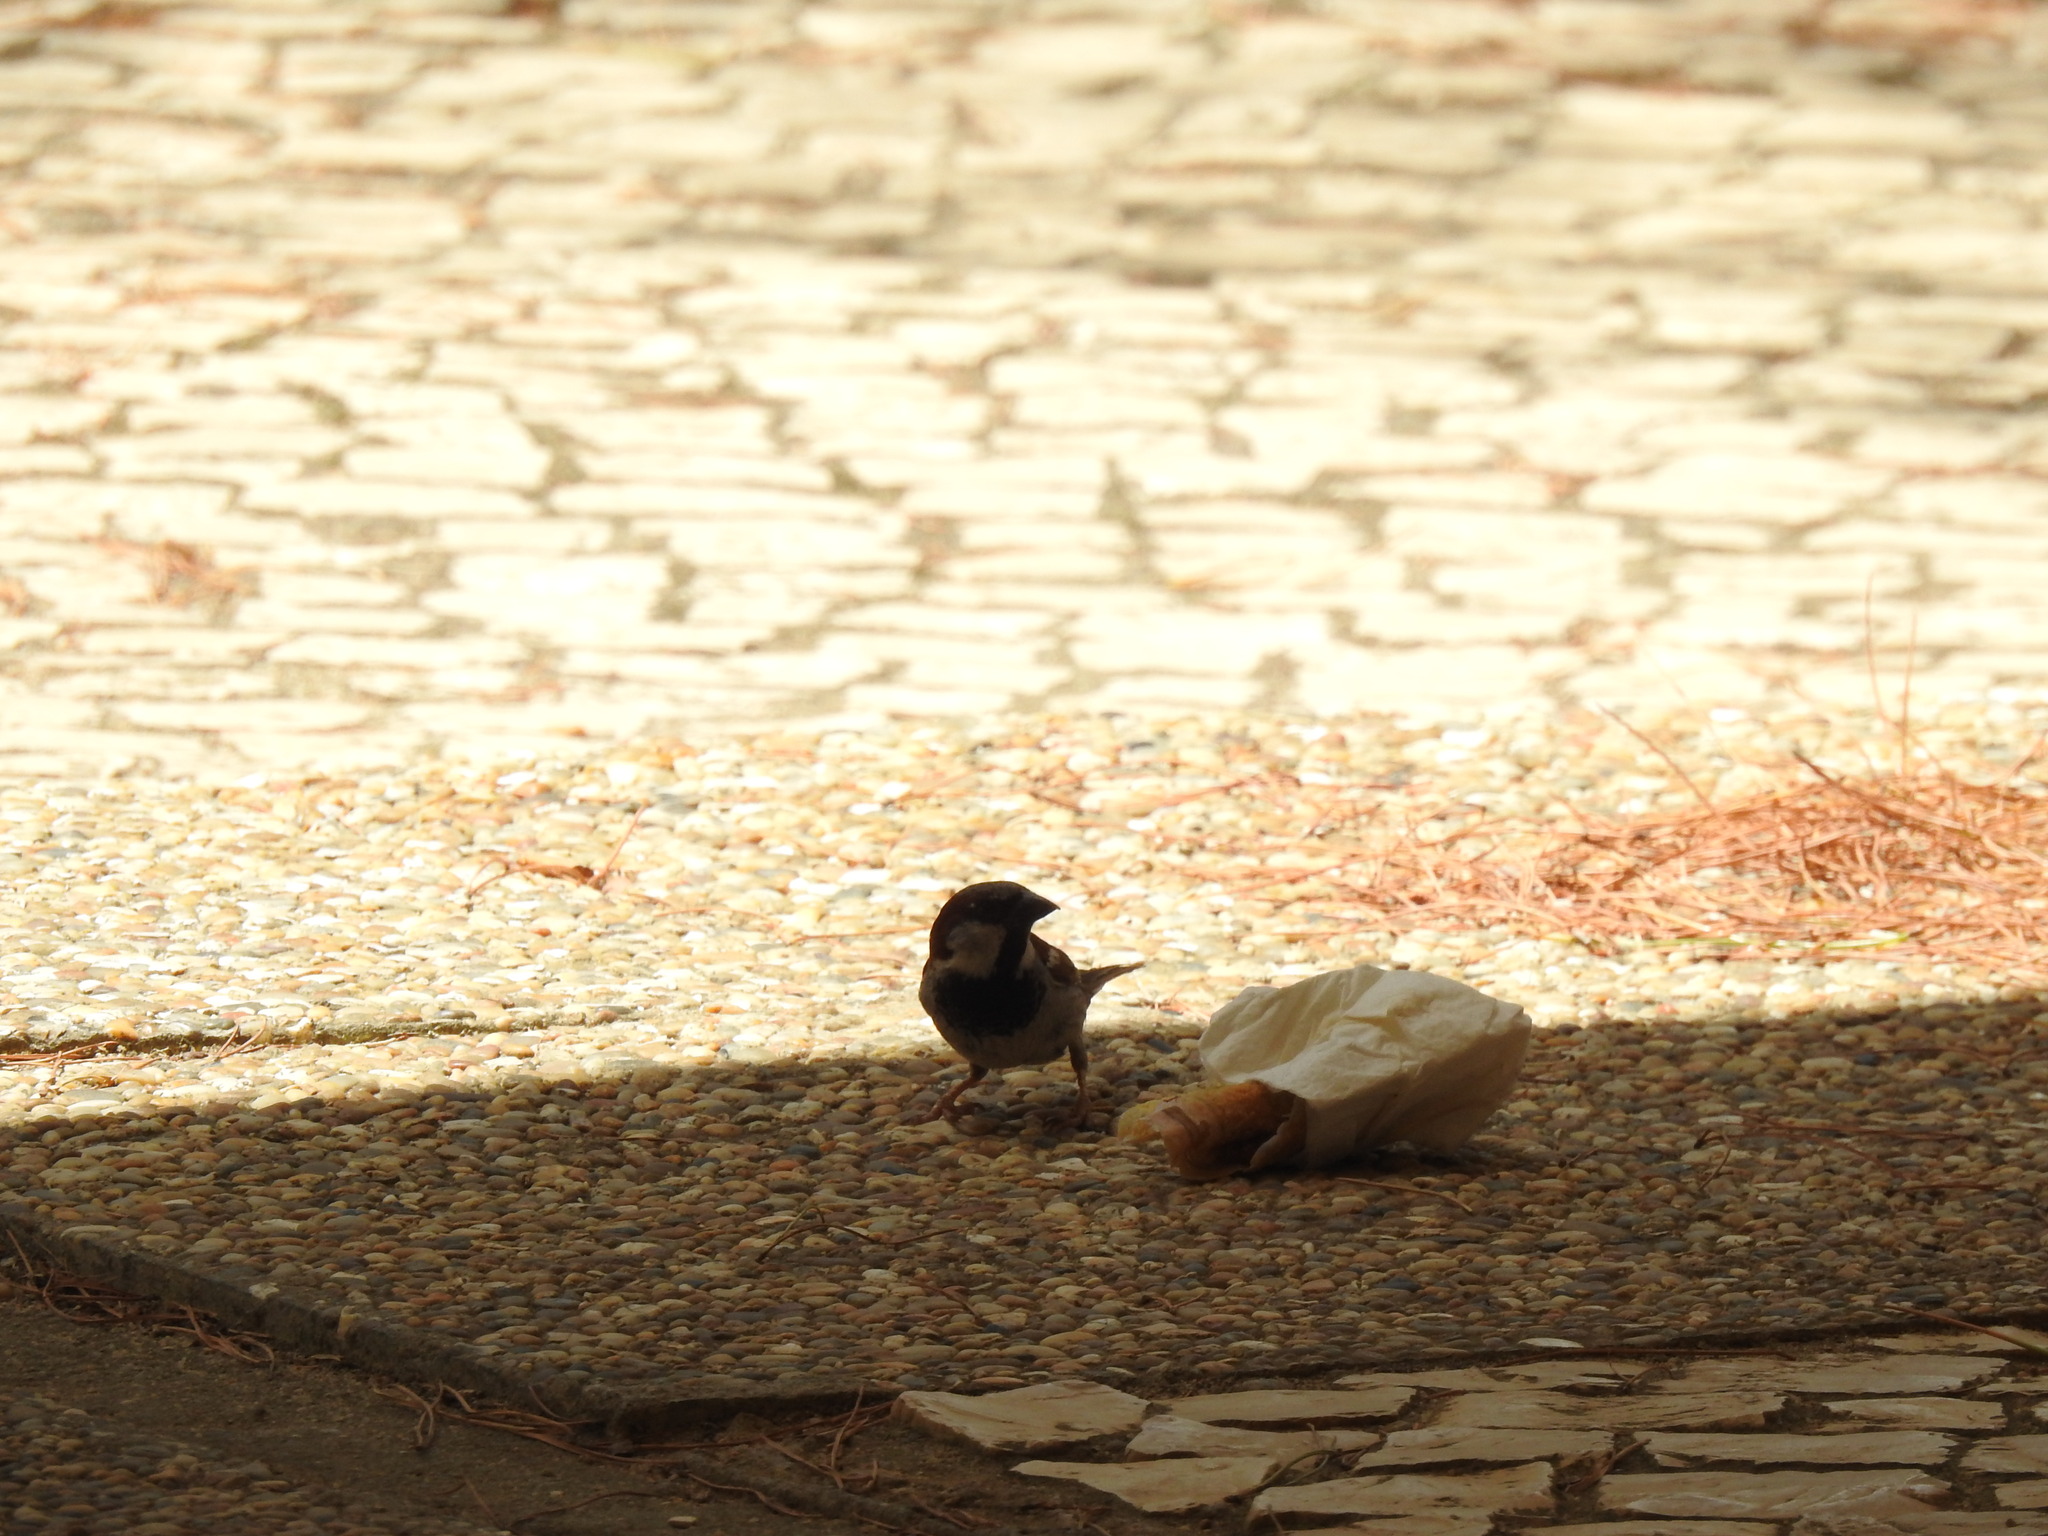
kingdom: Animalia
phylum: Chordata
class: Aves
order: Passeriformes
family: Passeridae
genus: Passer
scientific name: Passer domesticus
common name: House sparrow
